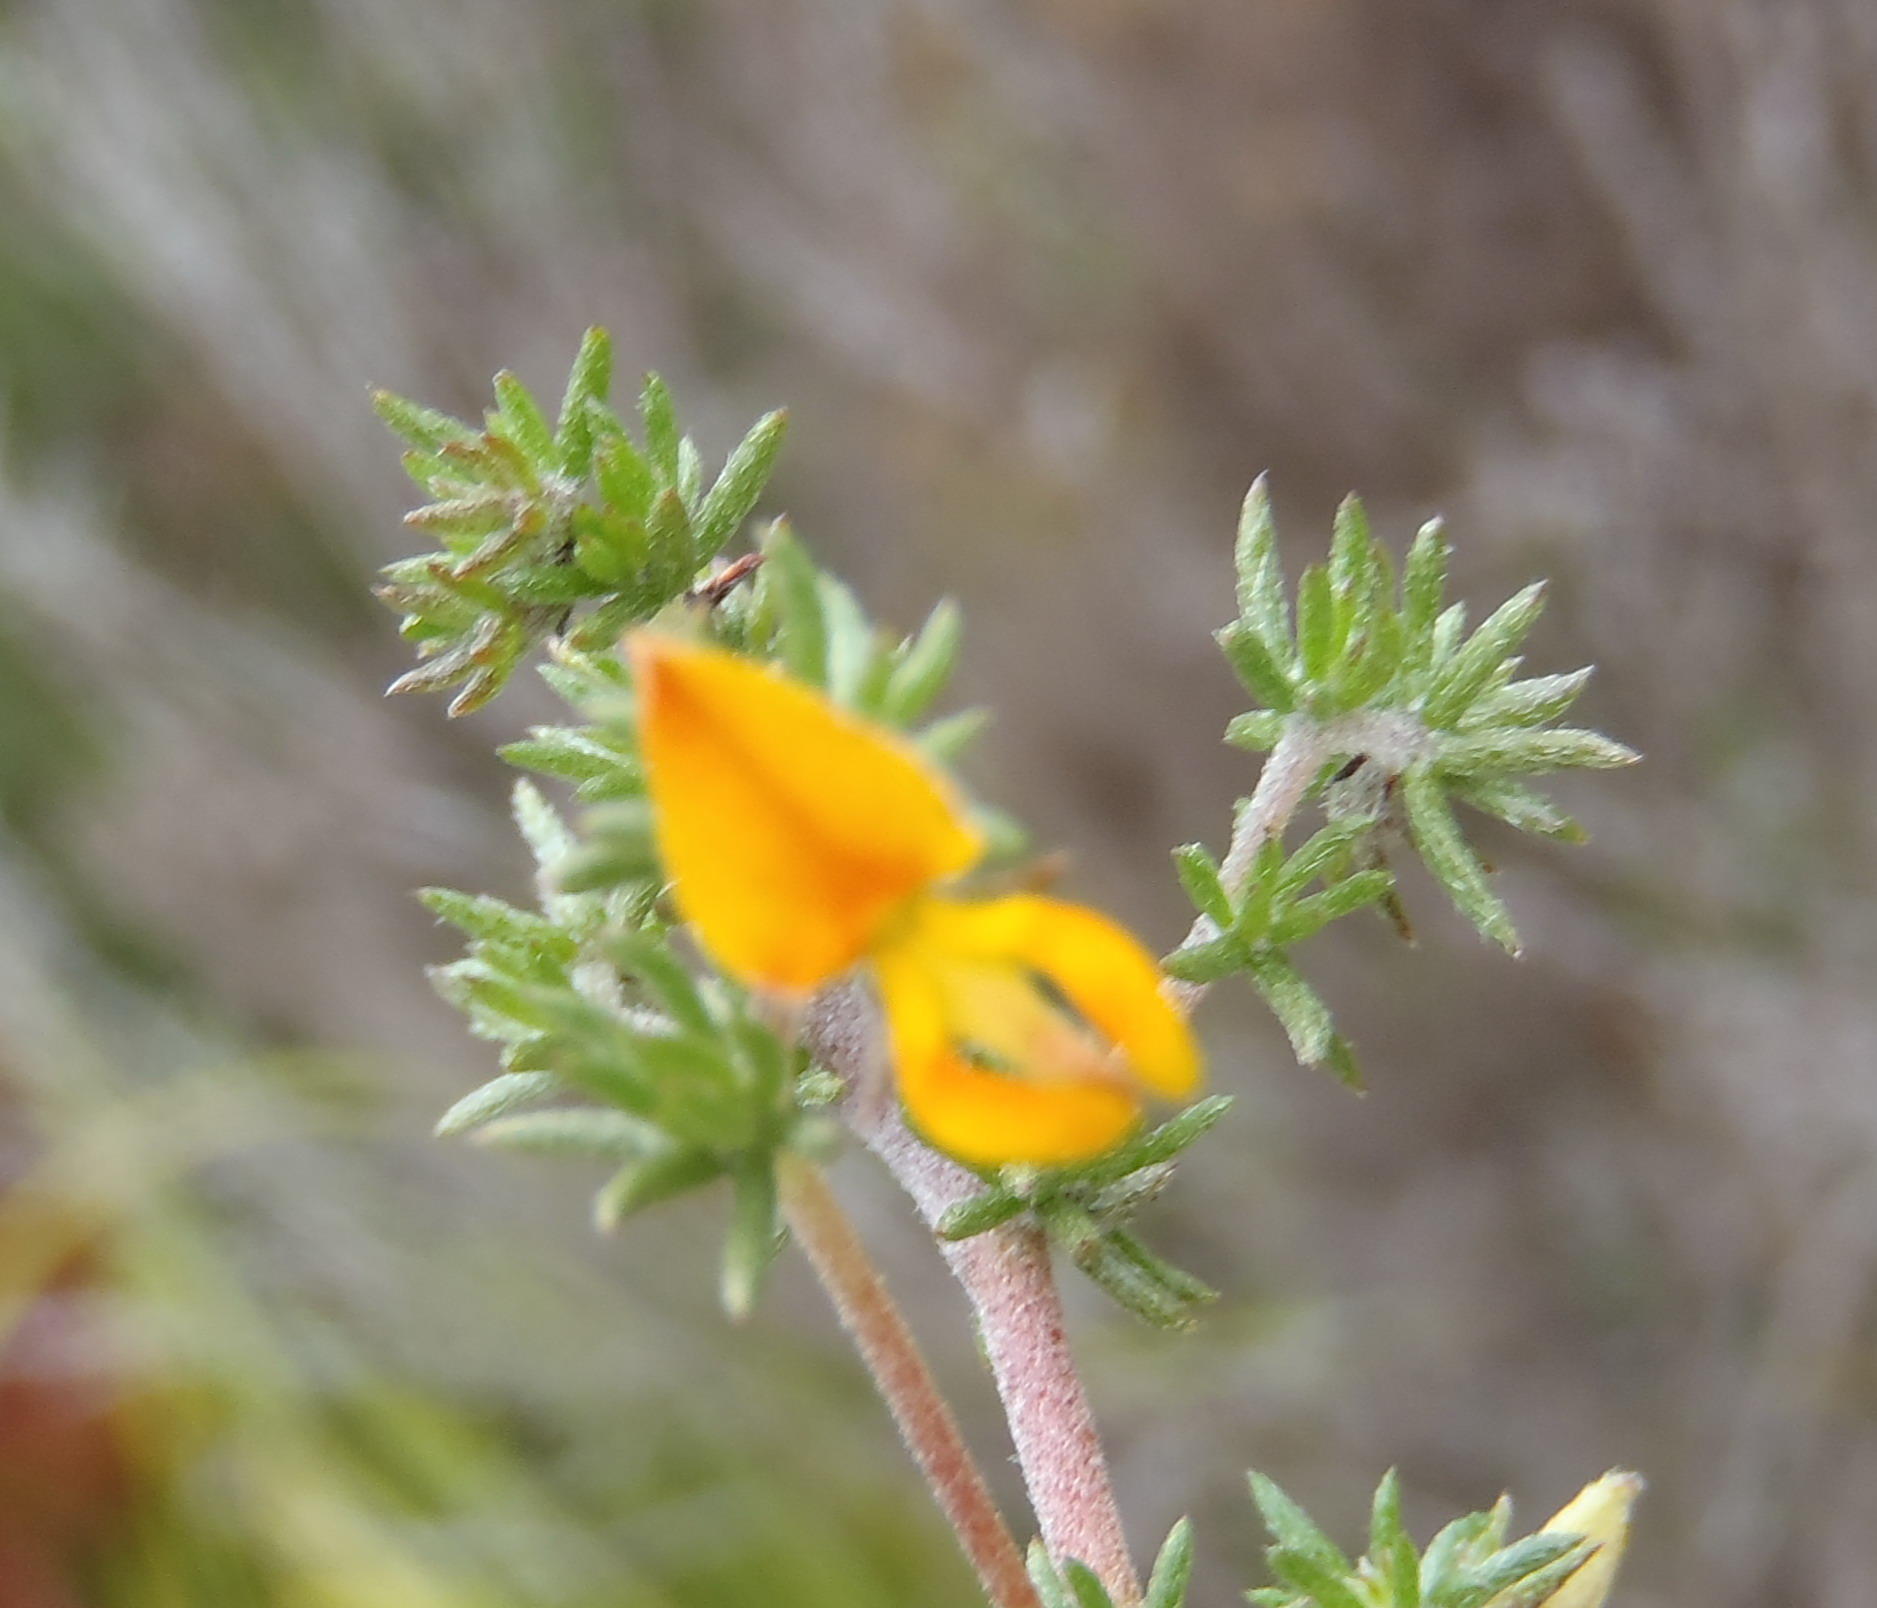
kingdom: Plantae
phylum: Tracheophyta
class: Magnoliopsida
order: Fabales
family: Fabaceae
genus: Aspalathus
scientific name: Aspalathus rubens
